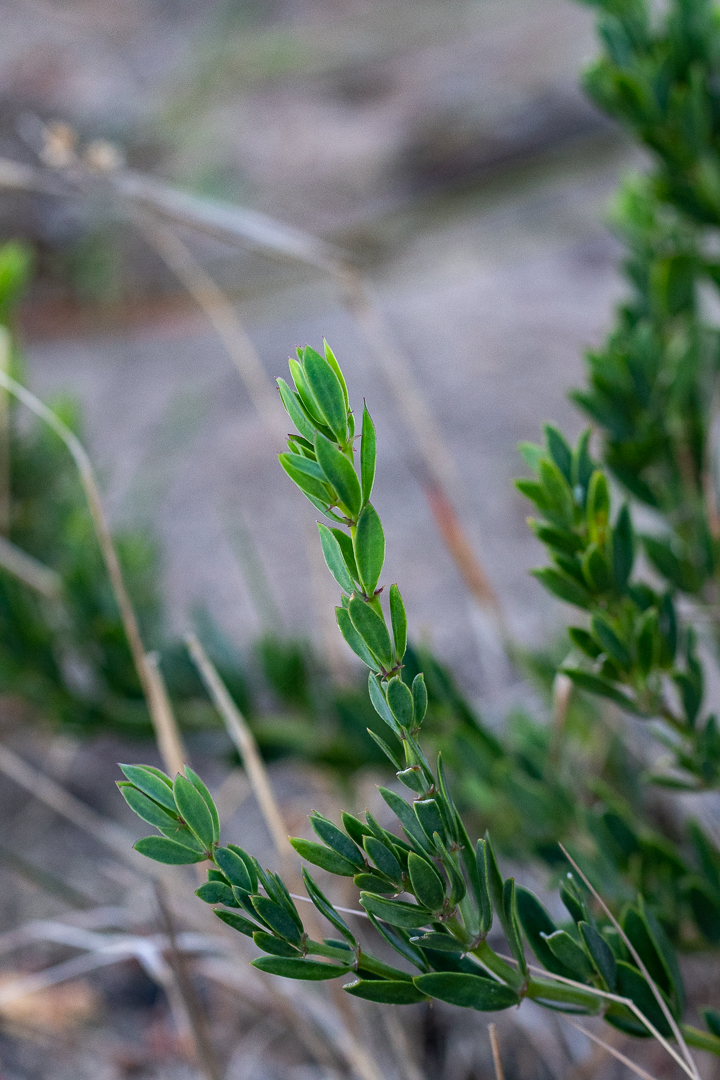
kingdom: Plantae
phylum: Tracheophyta
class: Magnoliopsida
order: Ericales
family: Ebenaceae
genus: Diospyros
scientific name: Diospyros glabra
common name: Fynbos star apple
